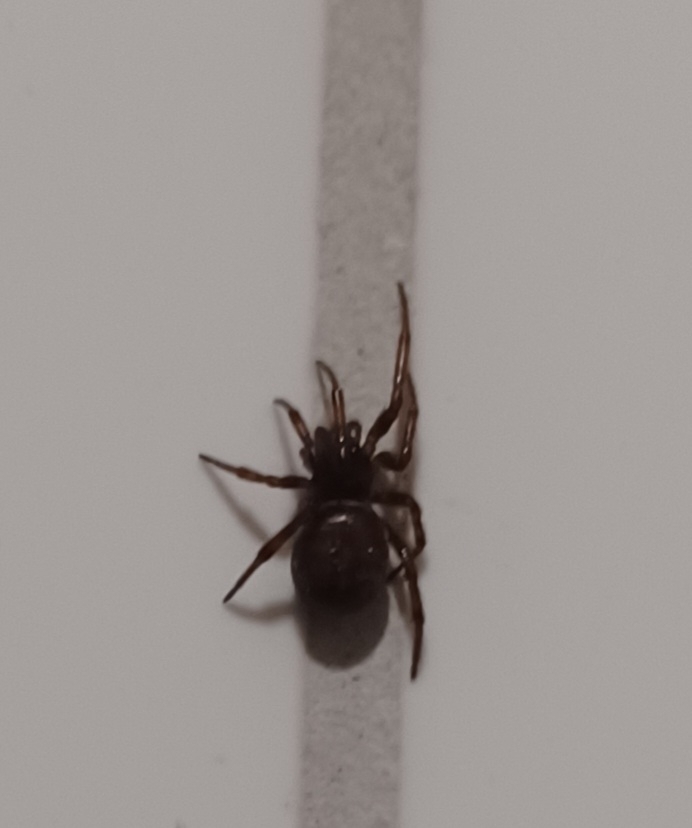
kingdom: Animalia
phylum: Arthropoda
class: Arachnida
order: Araneae
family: Theridiidae
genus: Steatoda
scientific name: Steatoda bipunctata
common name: False widow
